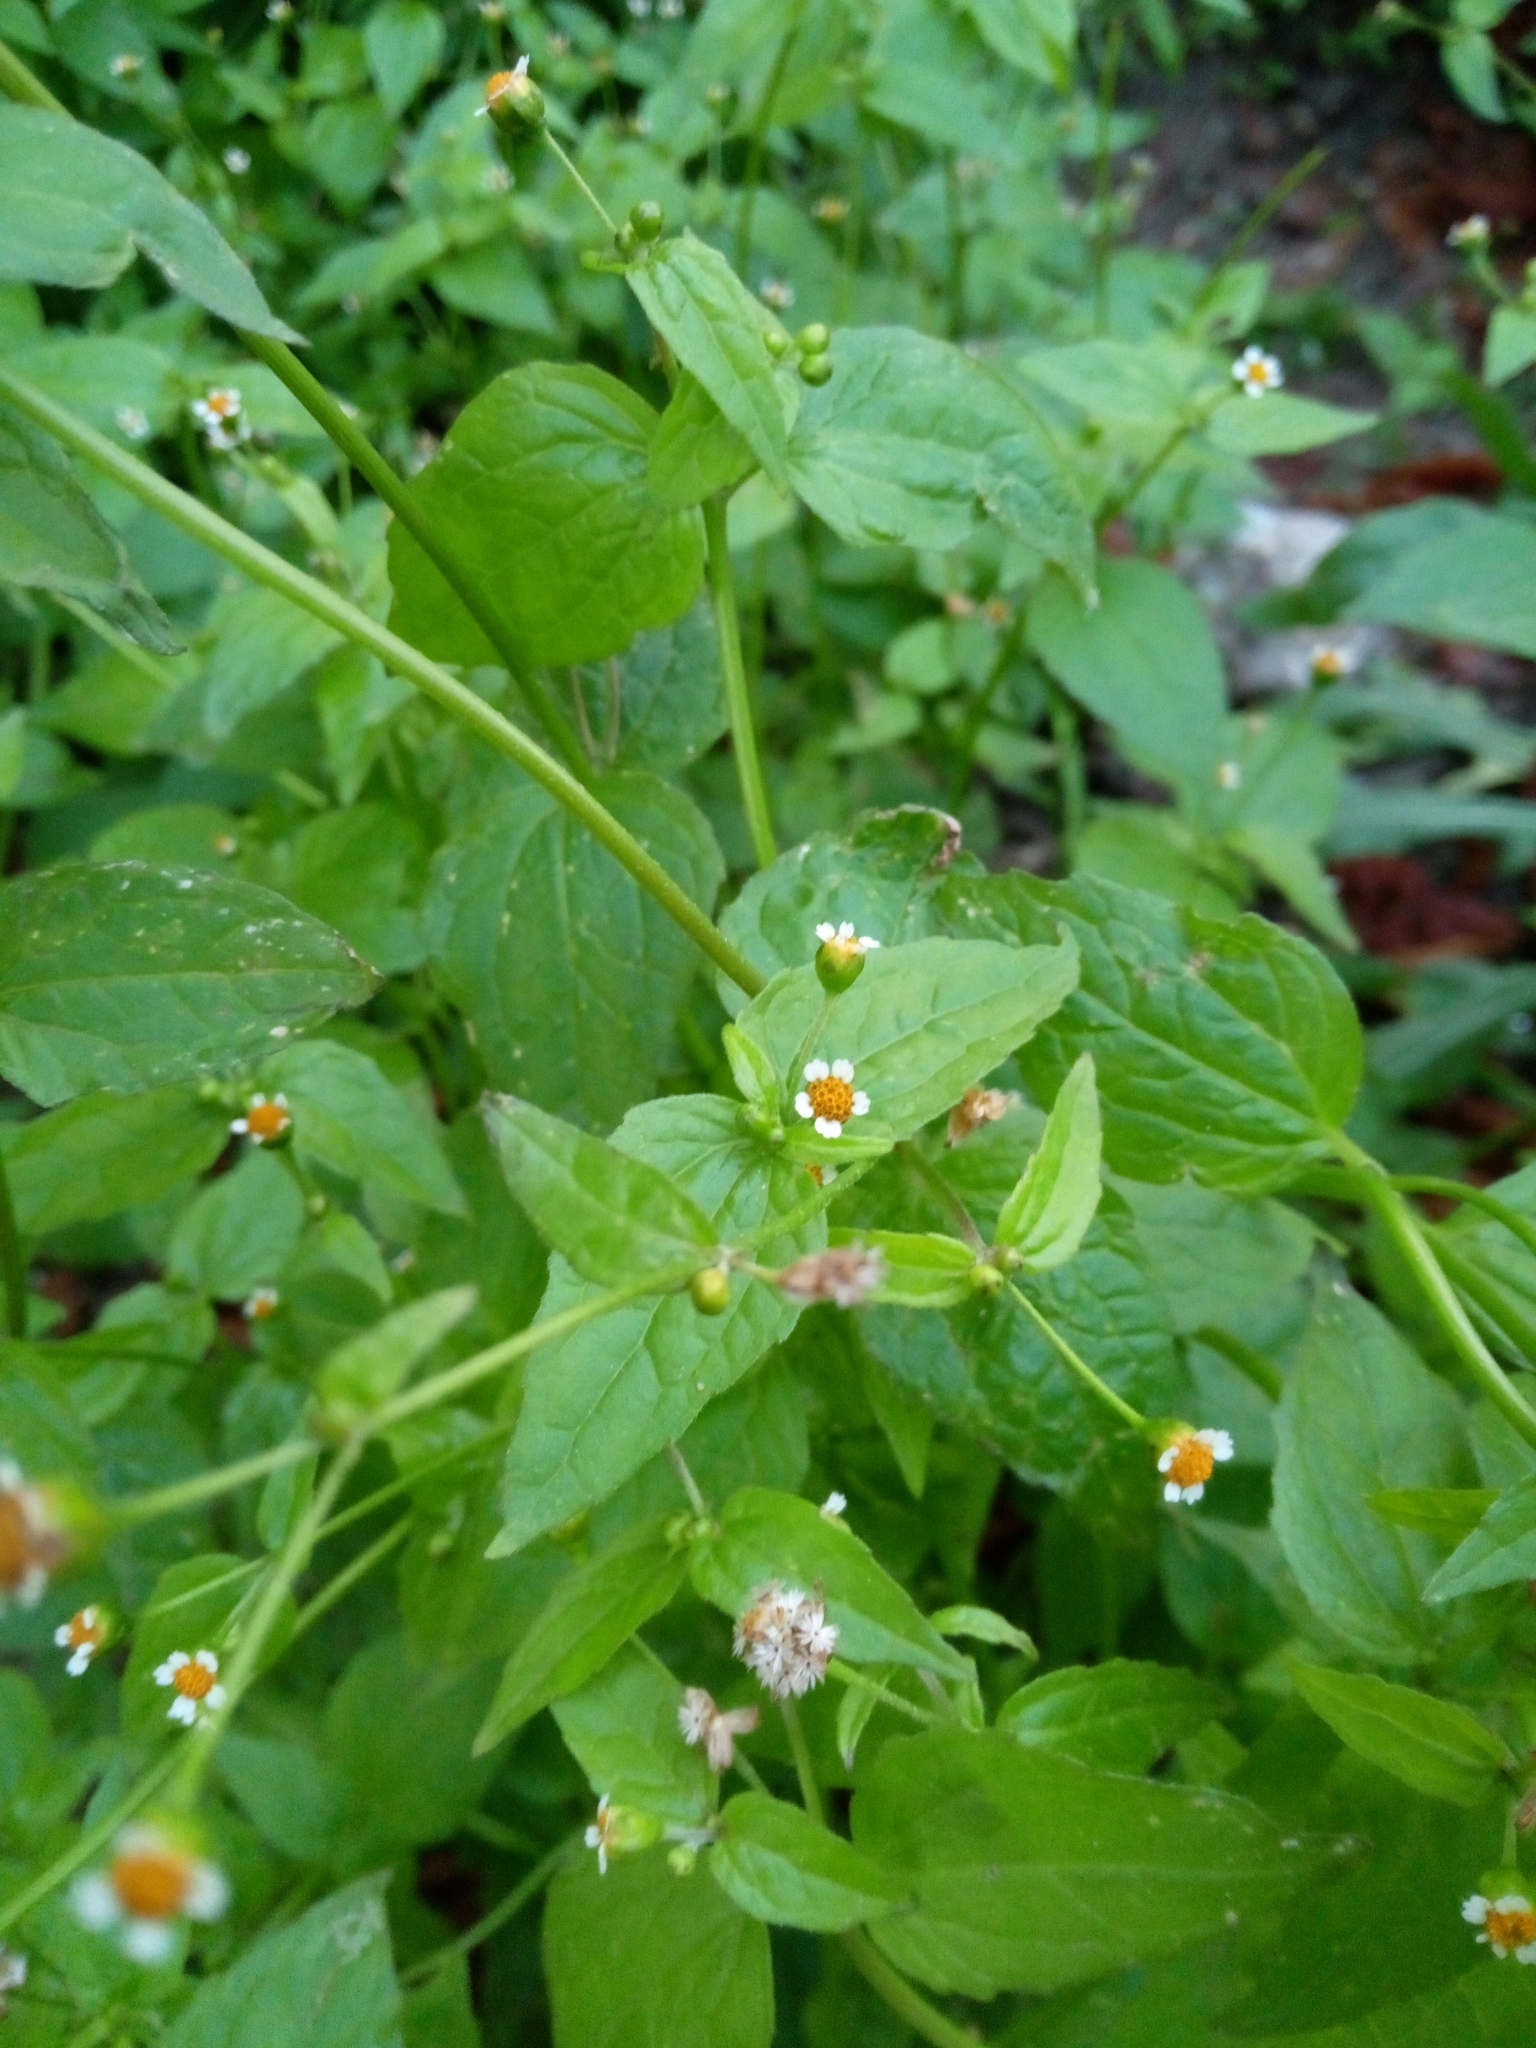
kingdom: Plantae
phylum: Tracheophyta
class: Magnoliopsida
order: Asterales
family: Asteraceae
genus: Galinsoga
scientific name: Galinsoga parviflora
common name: Gallant soldier
